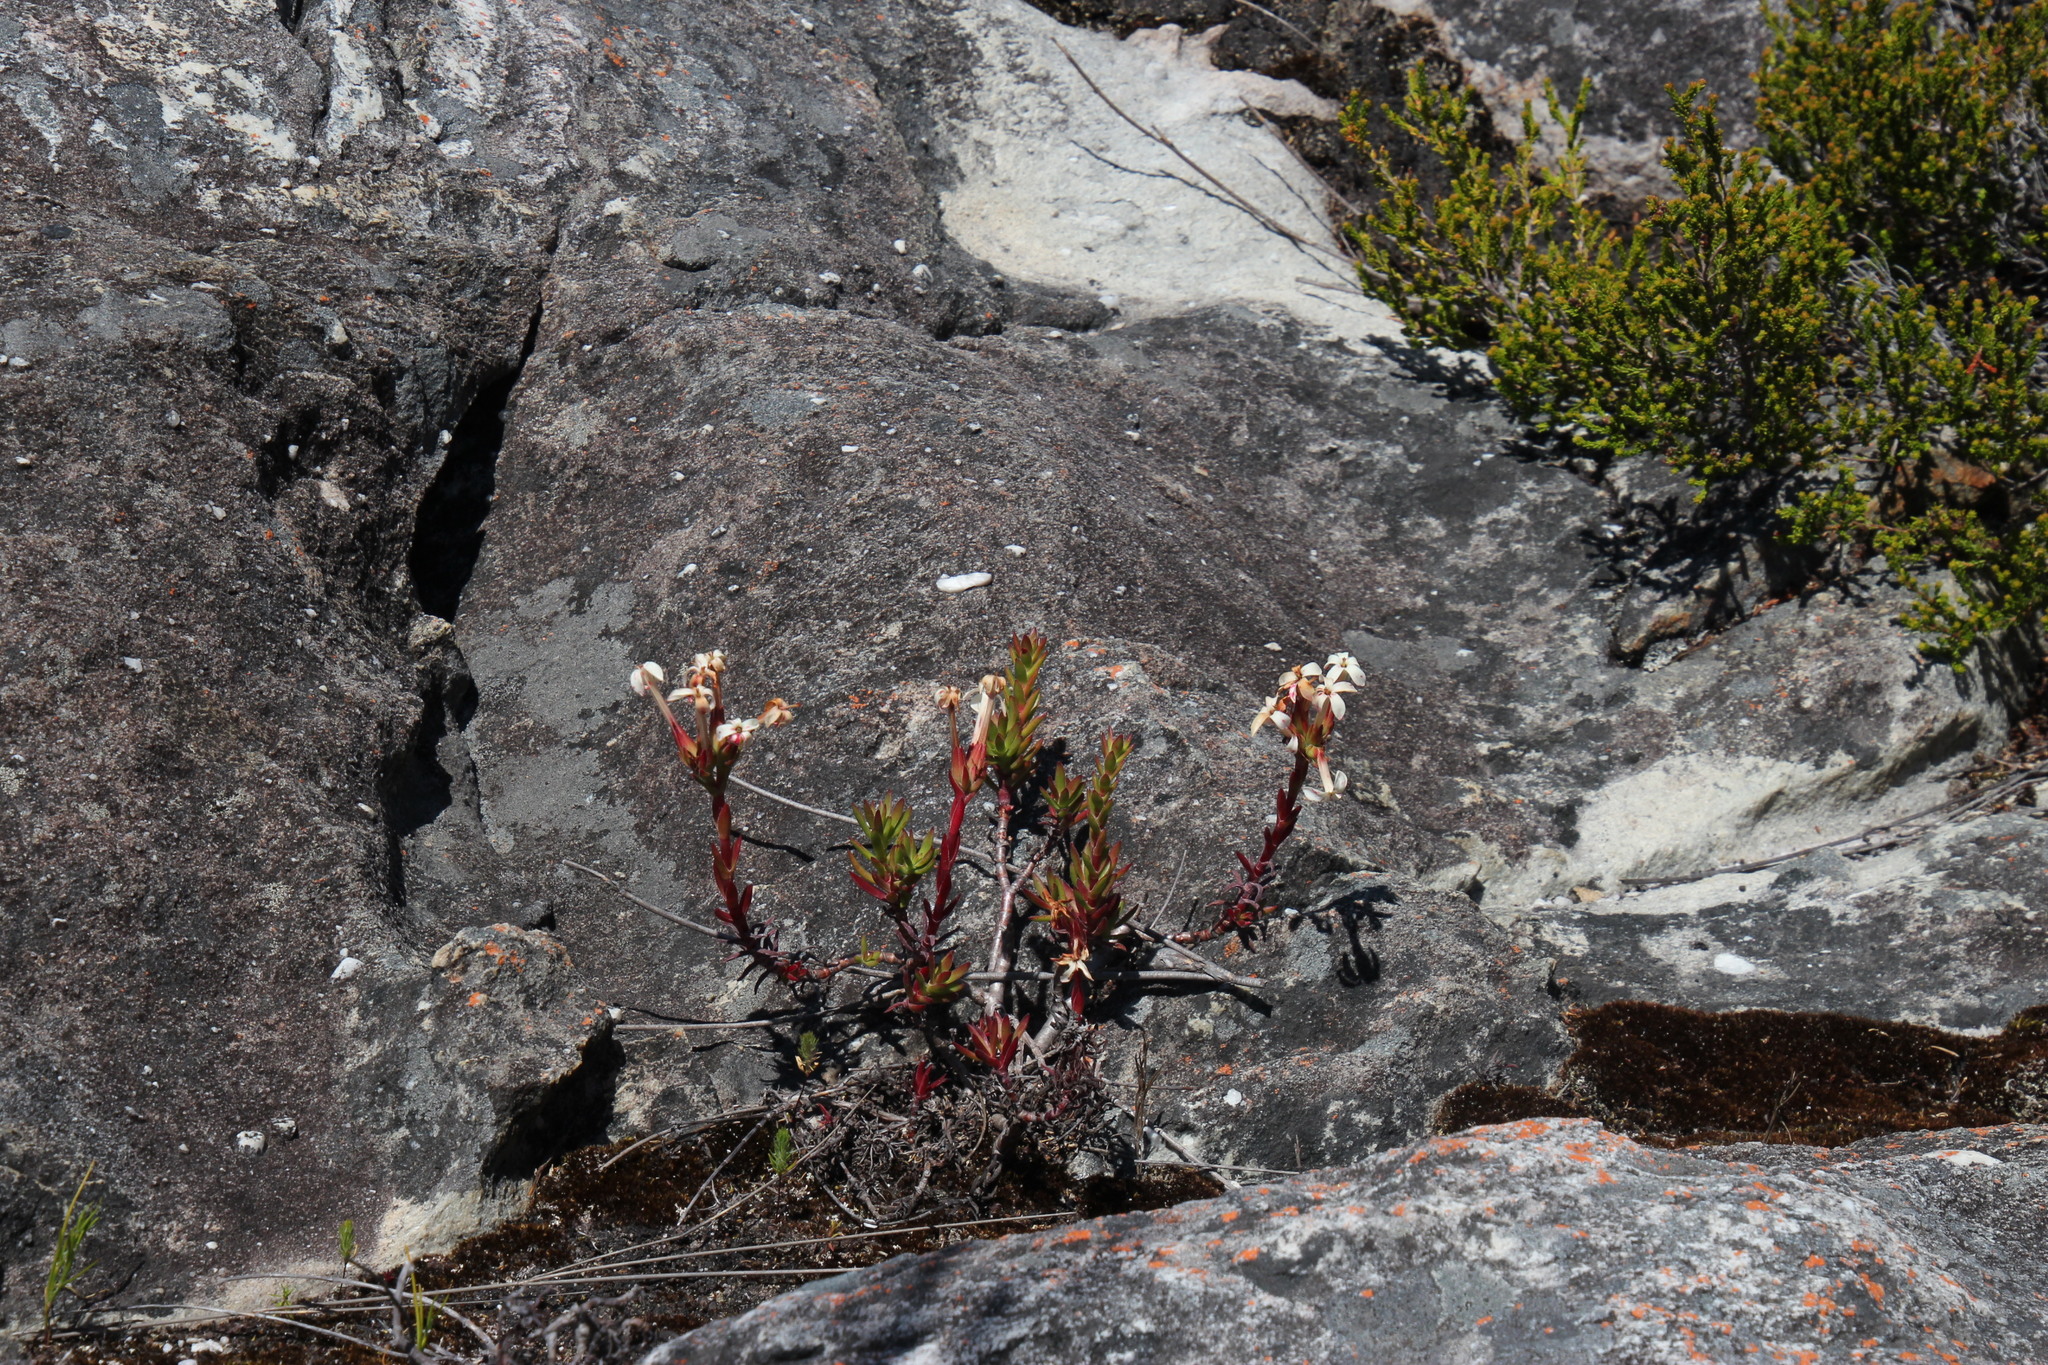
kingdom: Plantae
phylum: Tracheophyta
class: Magnoliopsida
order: Saxifragales
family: Crassulaceae
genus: Crassula
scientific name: Crassula fascicularis
